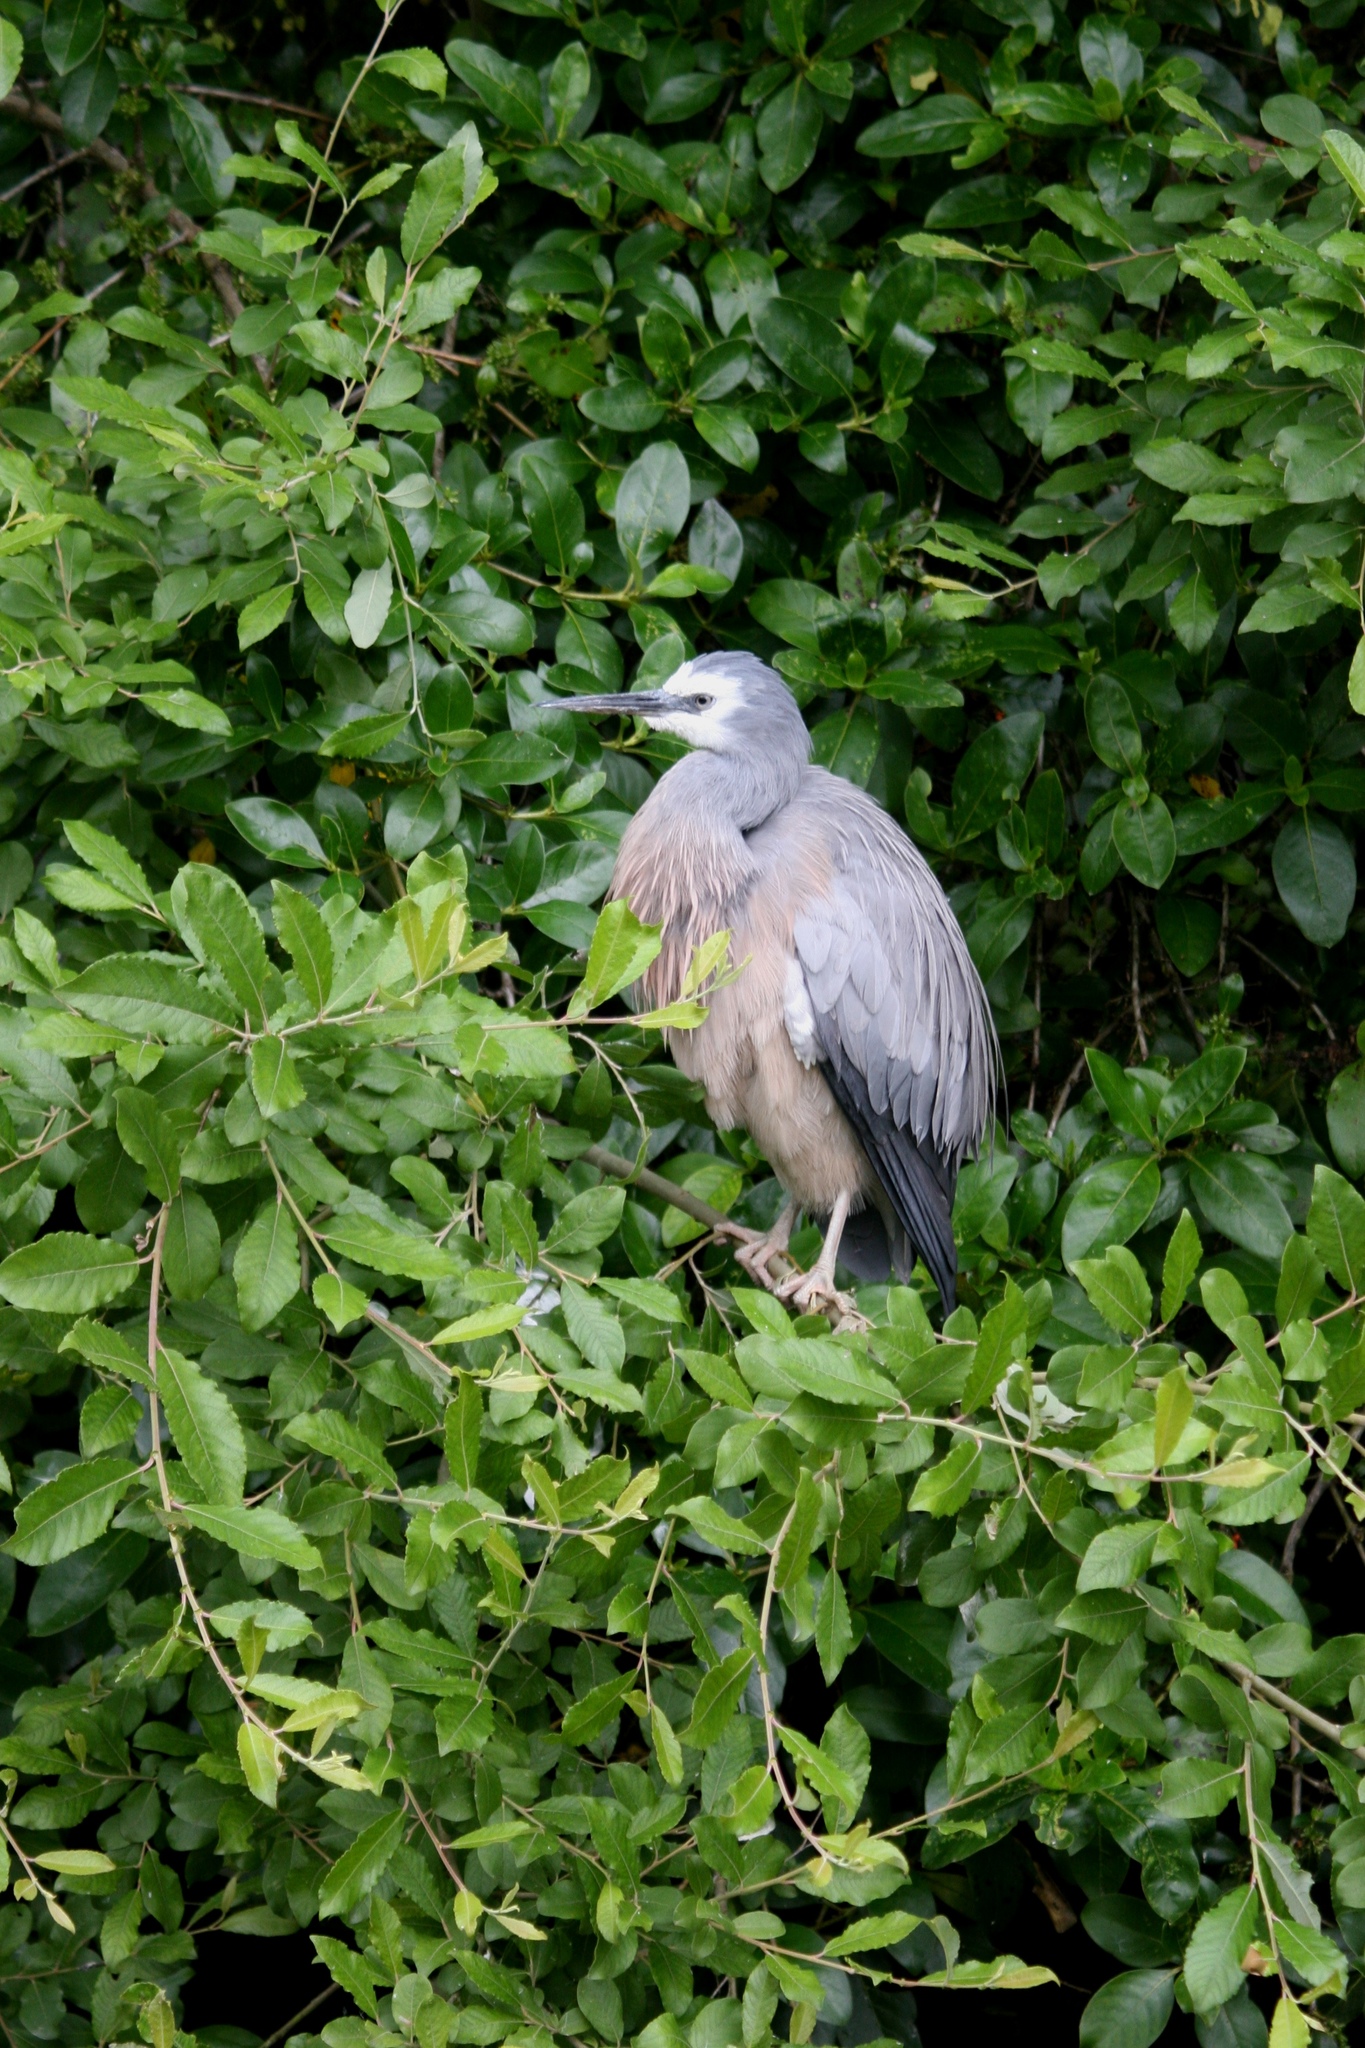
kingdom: Animalia
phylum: Chordata
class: Aves
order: Pelecaniformes
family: Ardeidae
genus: Egretta
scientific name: Egretta novaehollandiae
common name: White-faced heron
